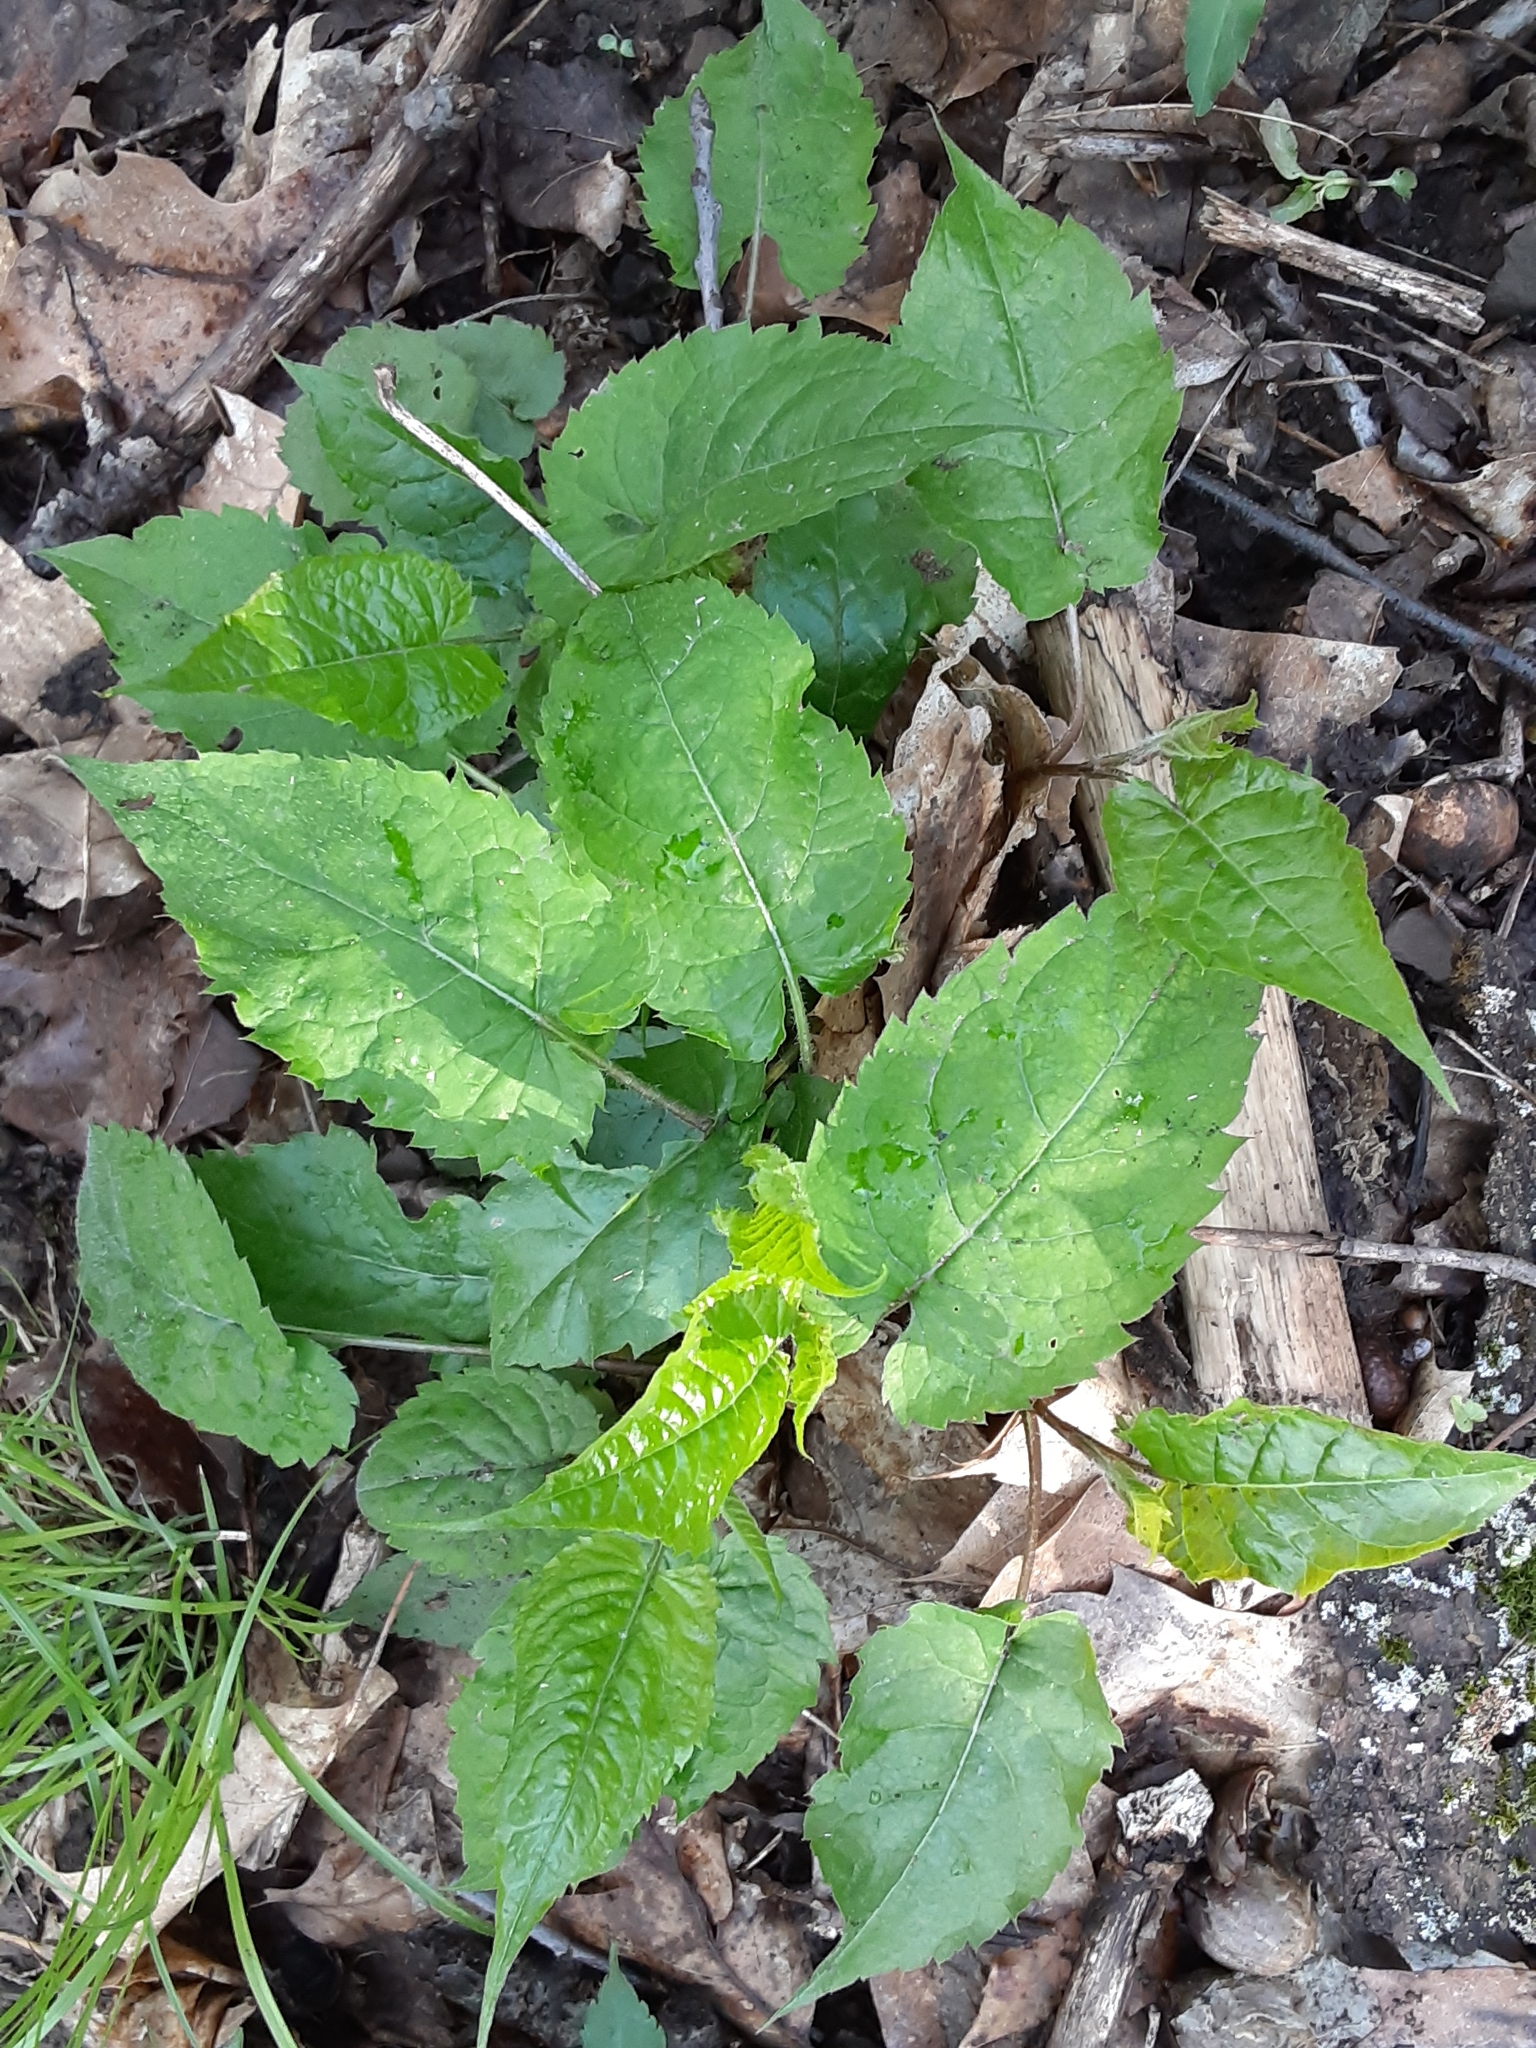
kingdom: Plantae
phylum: Tracheophyta
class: Magnoliopsida
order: Asterales
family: Asteraceae
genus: Eurybia
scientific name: Eurybia divaricata
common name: White wood aster
